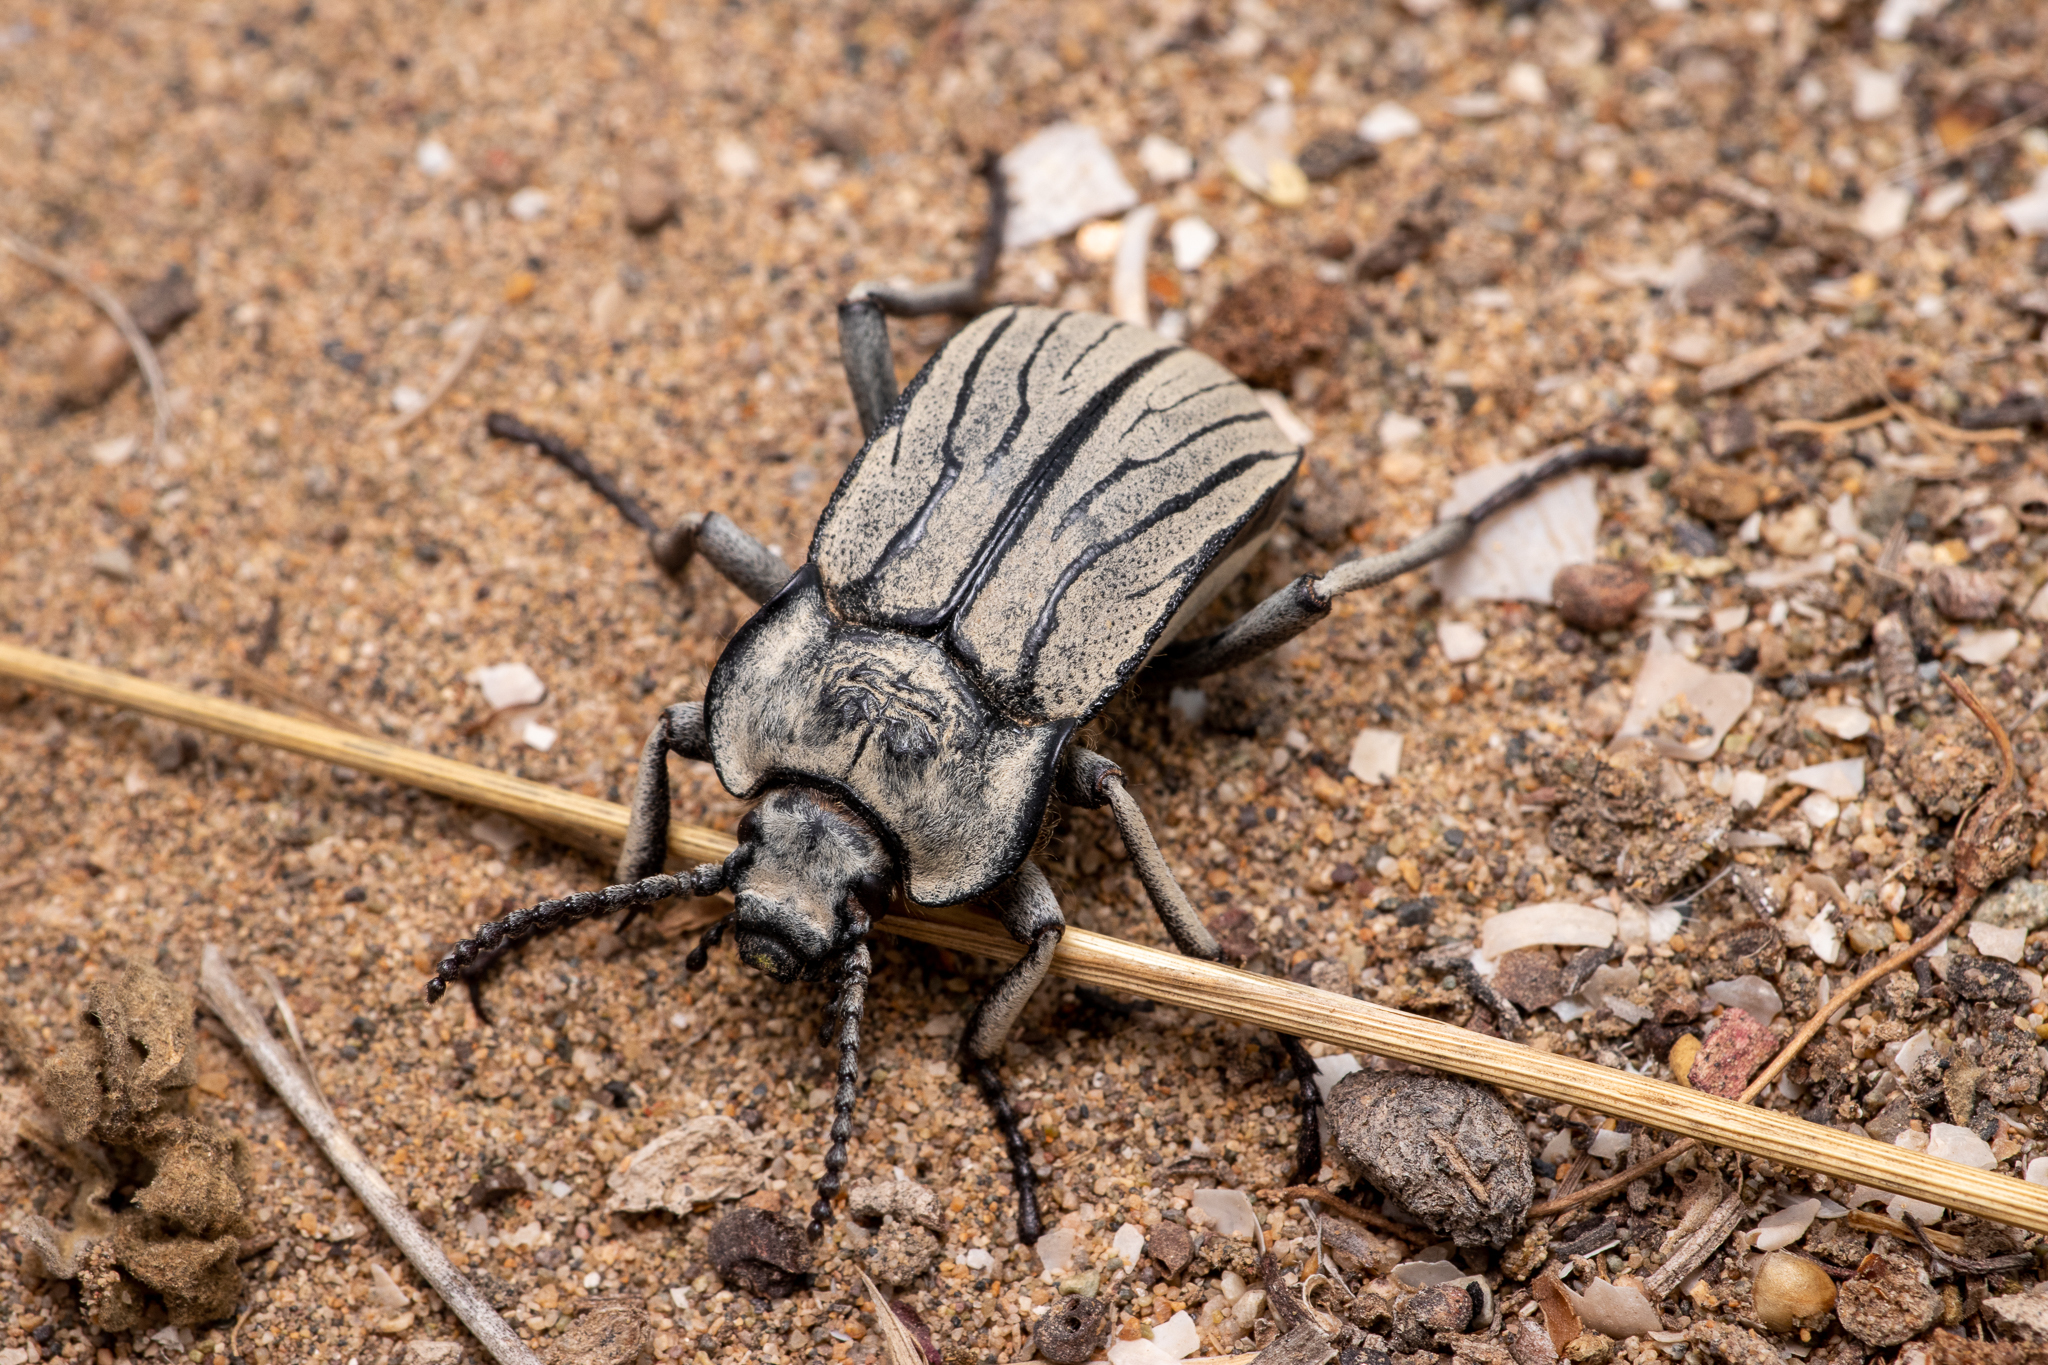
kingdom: Animalia
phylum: Arthropoda
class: Insecta
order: Coleoptera
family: Tenebrionidae
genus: Gyriosomus
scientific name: Gyriosomus
